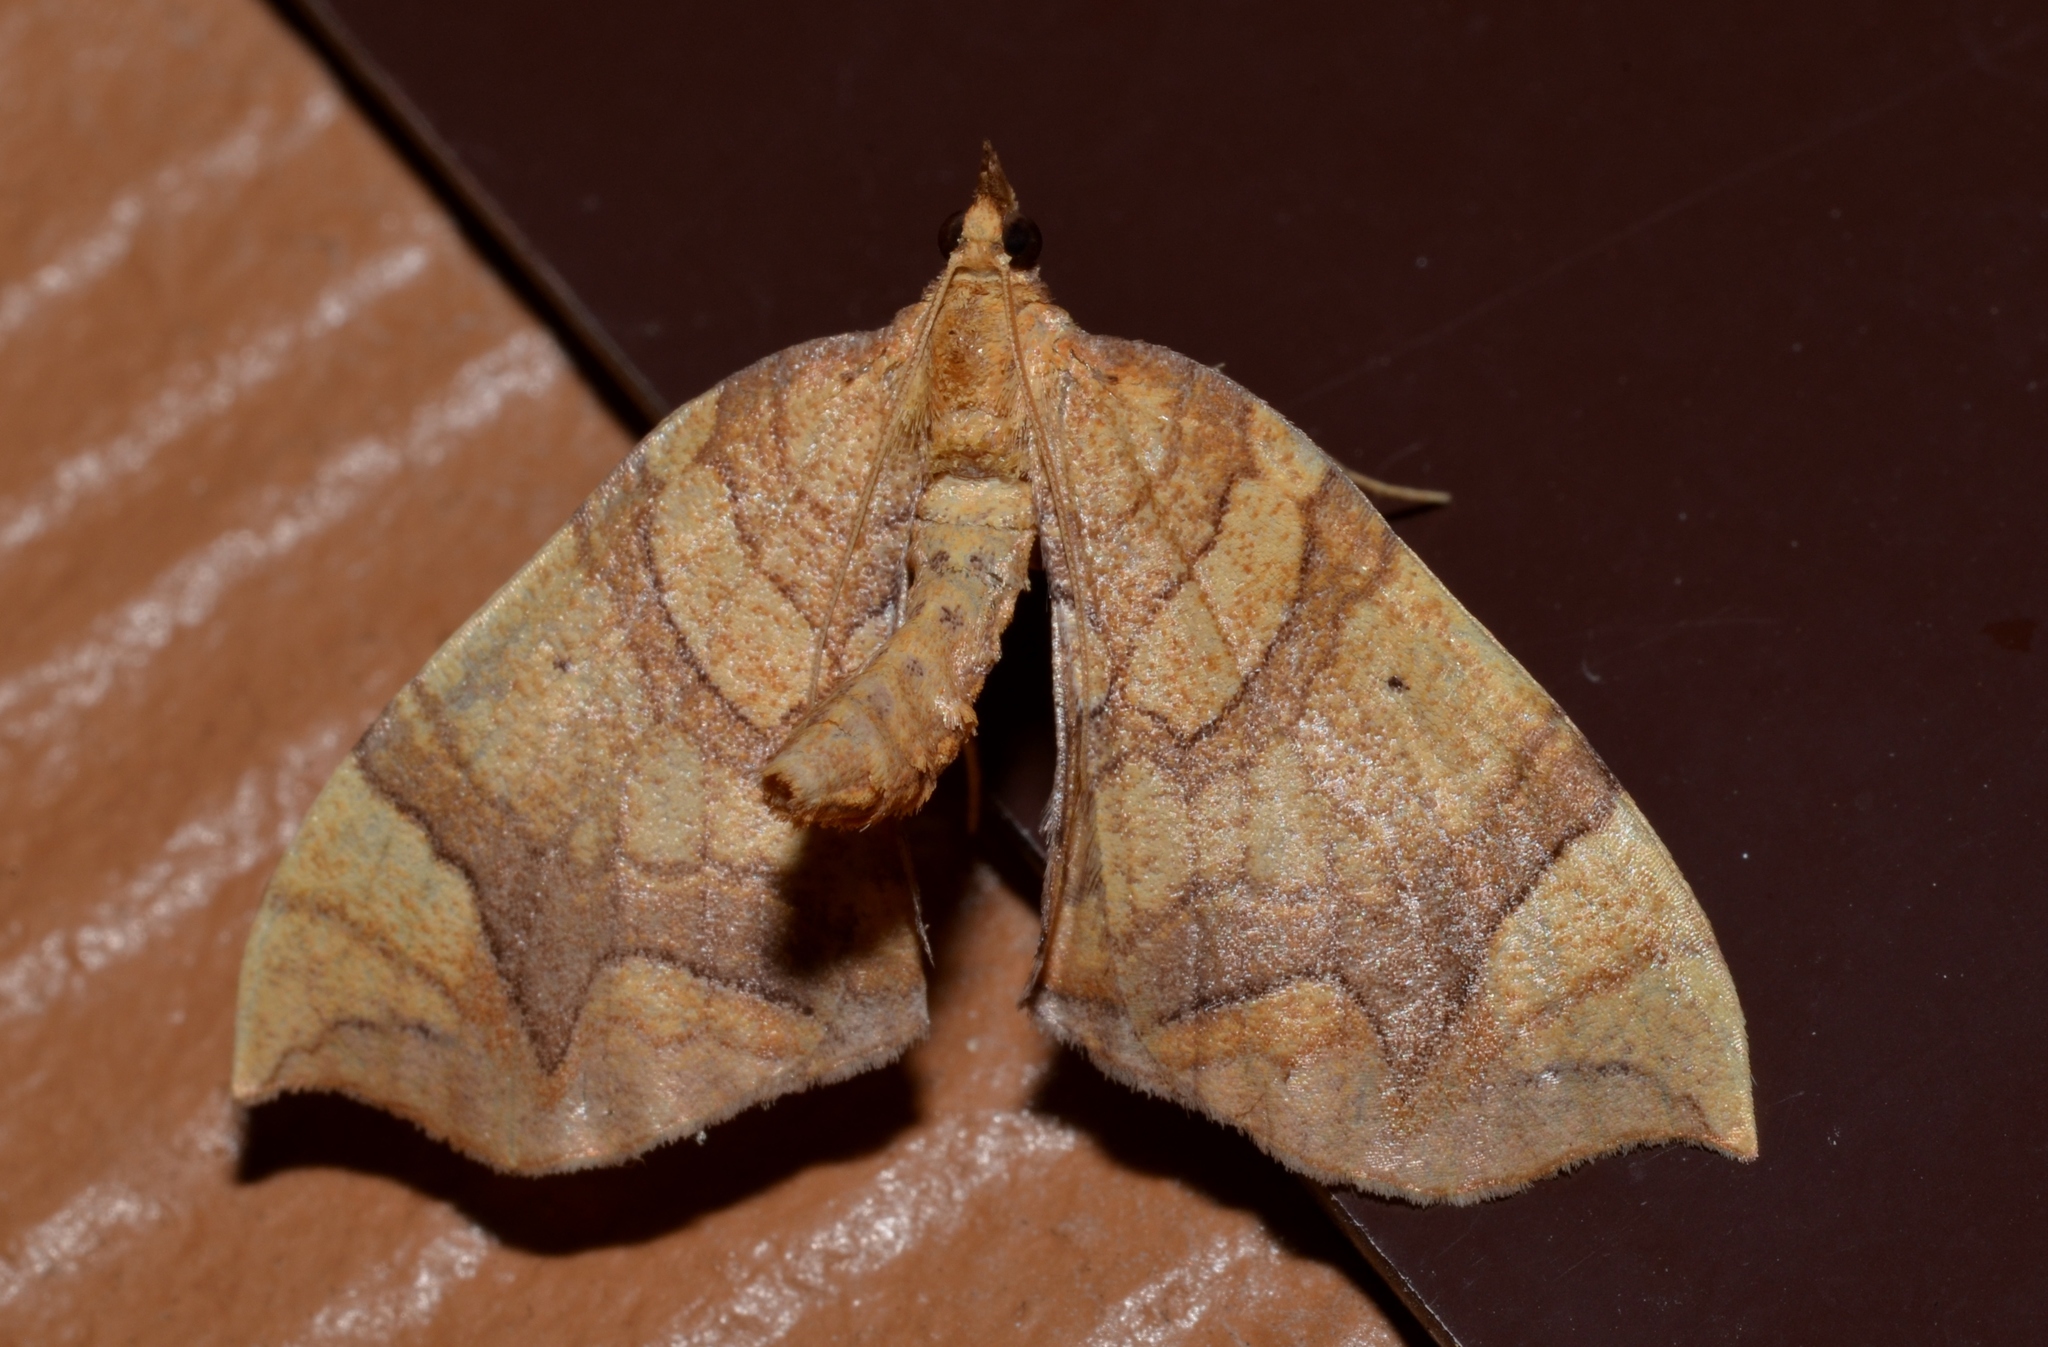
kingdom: Animalia
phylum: Arthropoda
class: Insecta
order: Lepidoptera
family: Geometridae
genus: Eulithis
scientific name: Eulithis
